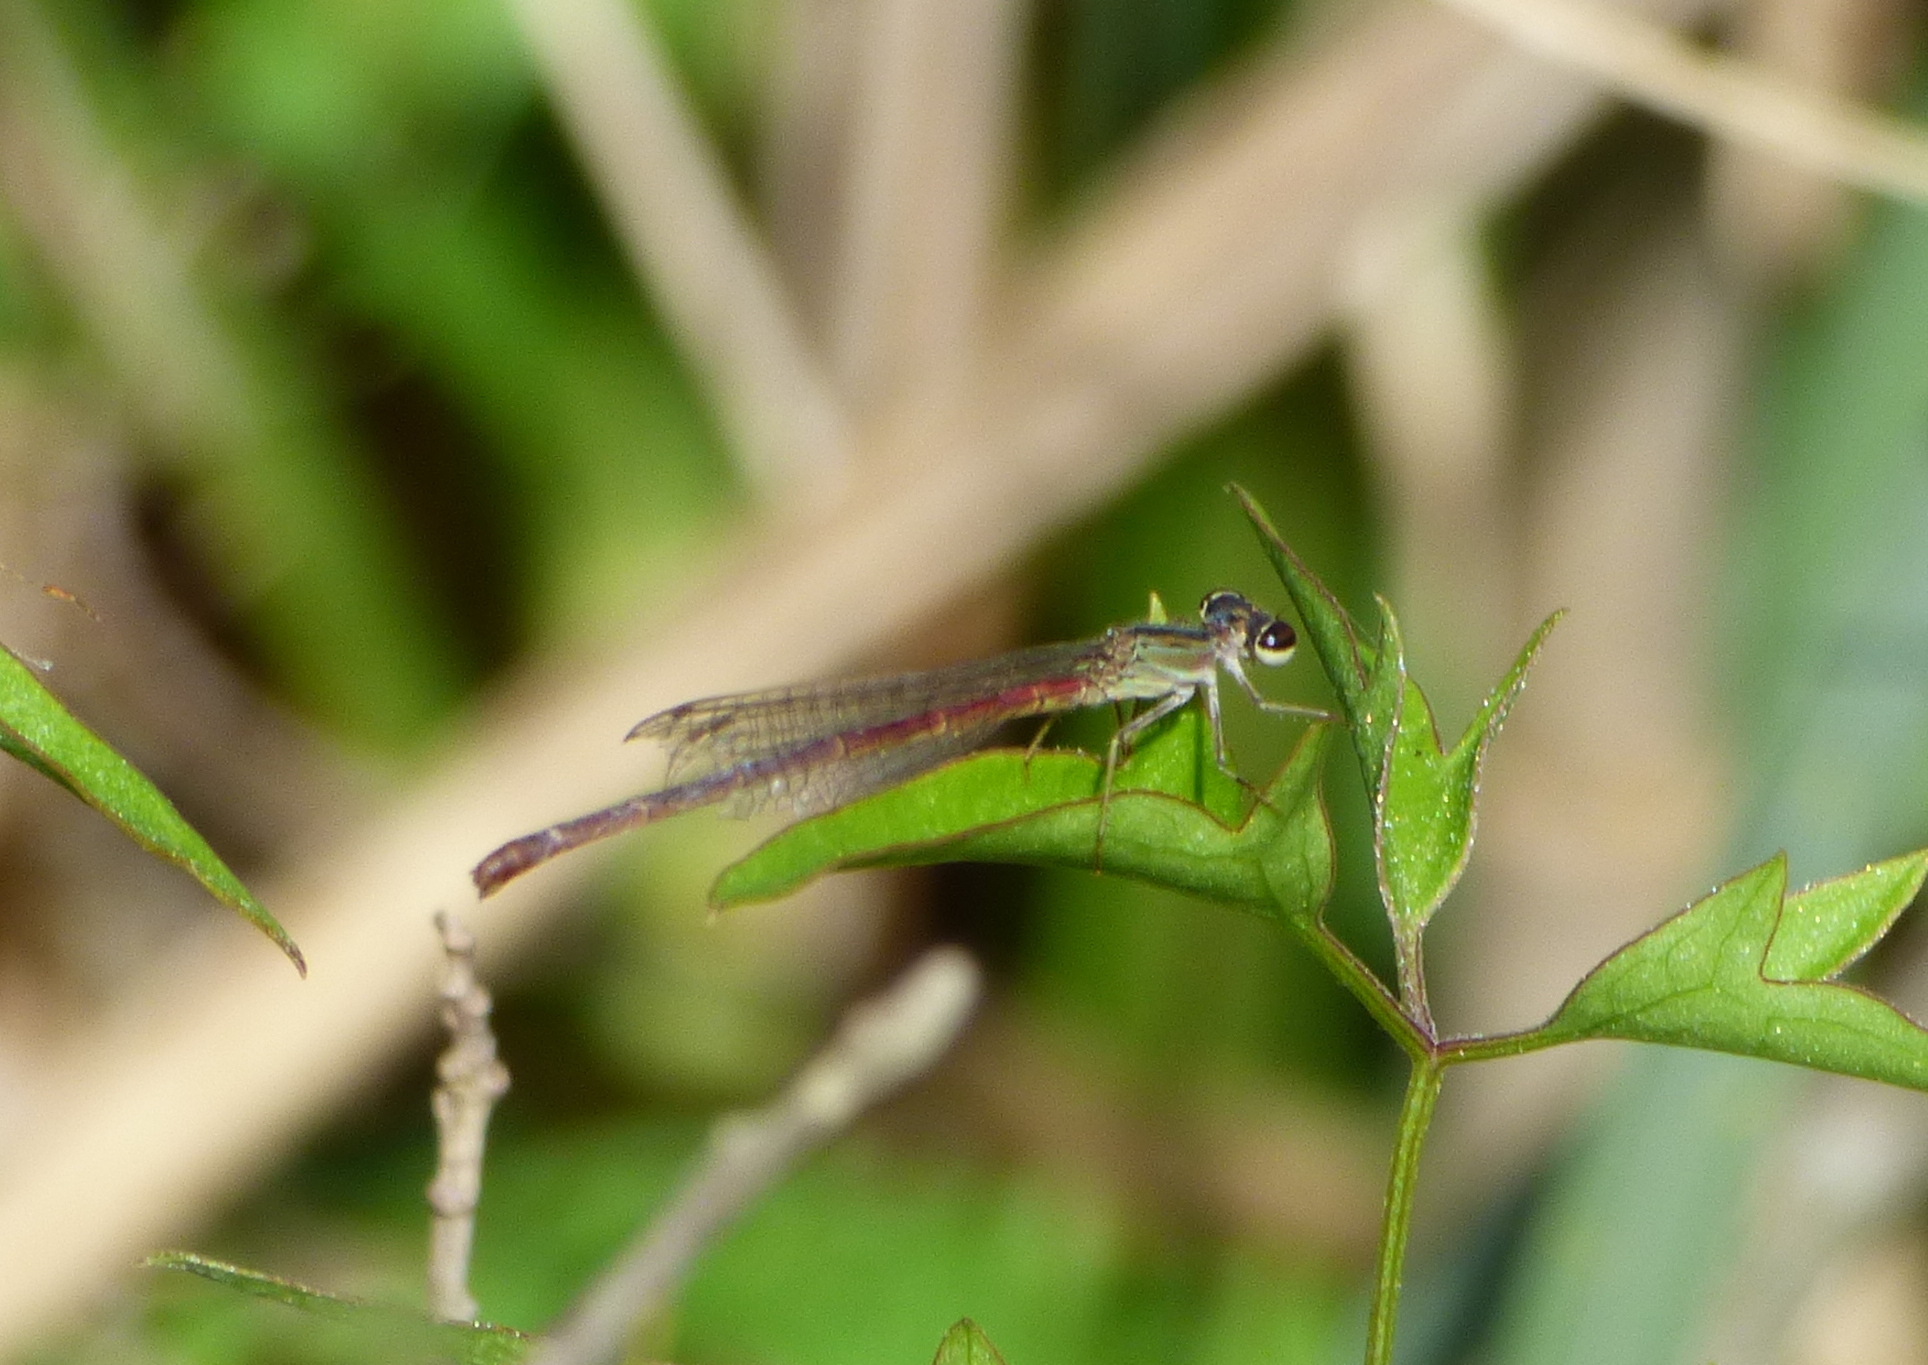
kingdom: Animalia
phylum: Arthropoda
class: Insecta
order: Odonata
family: Coenagrionidae
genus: Telebasis
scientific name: Telebasis willinki
